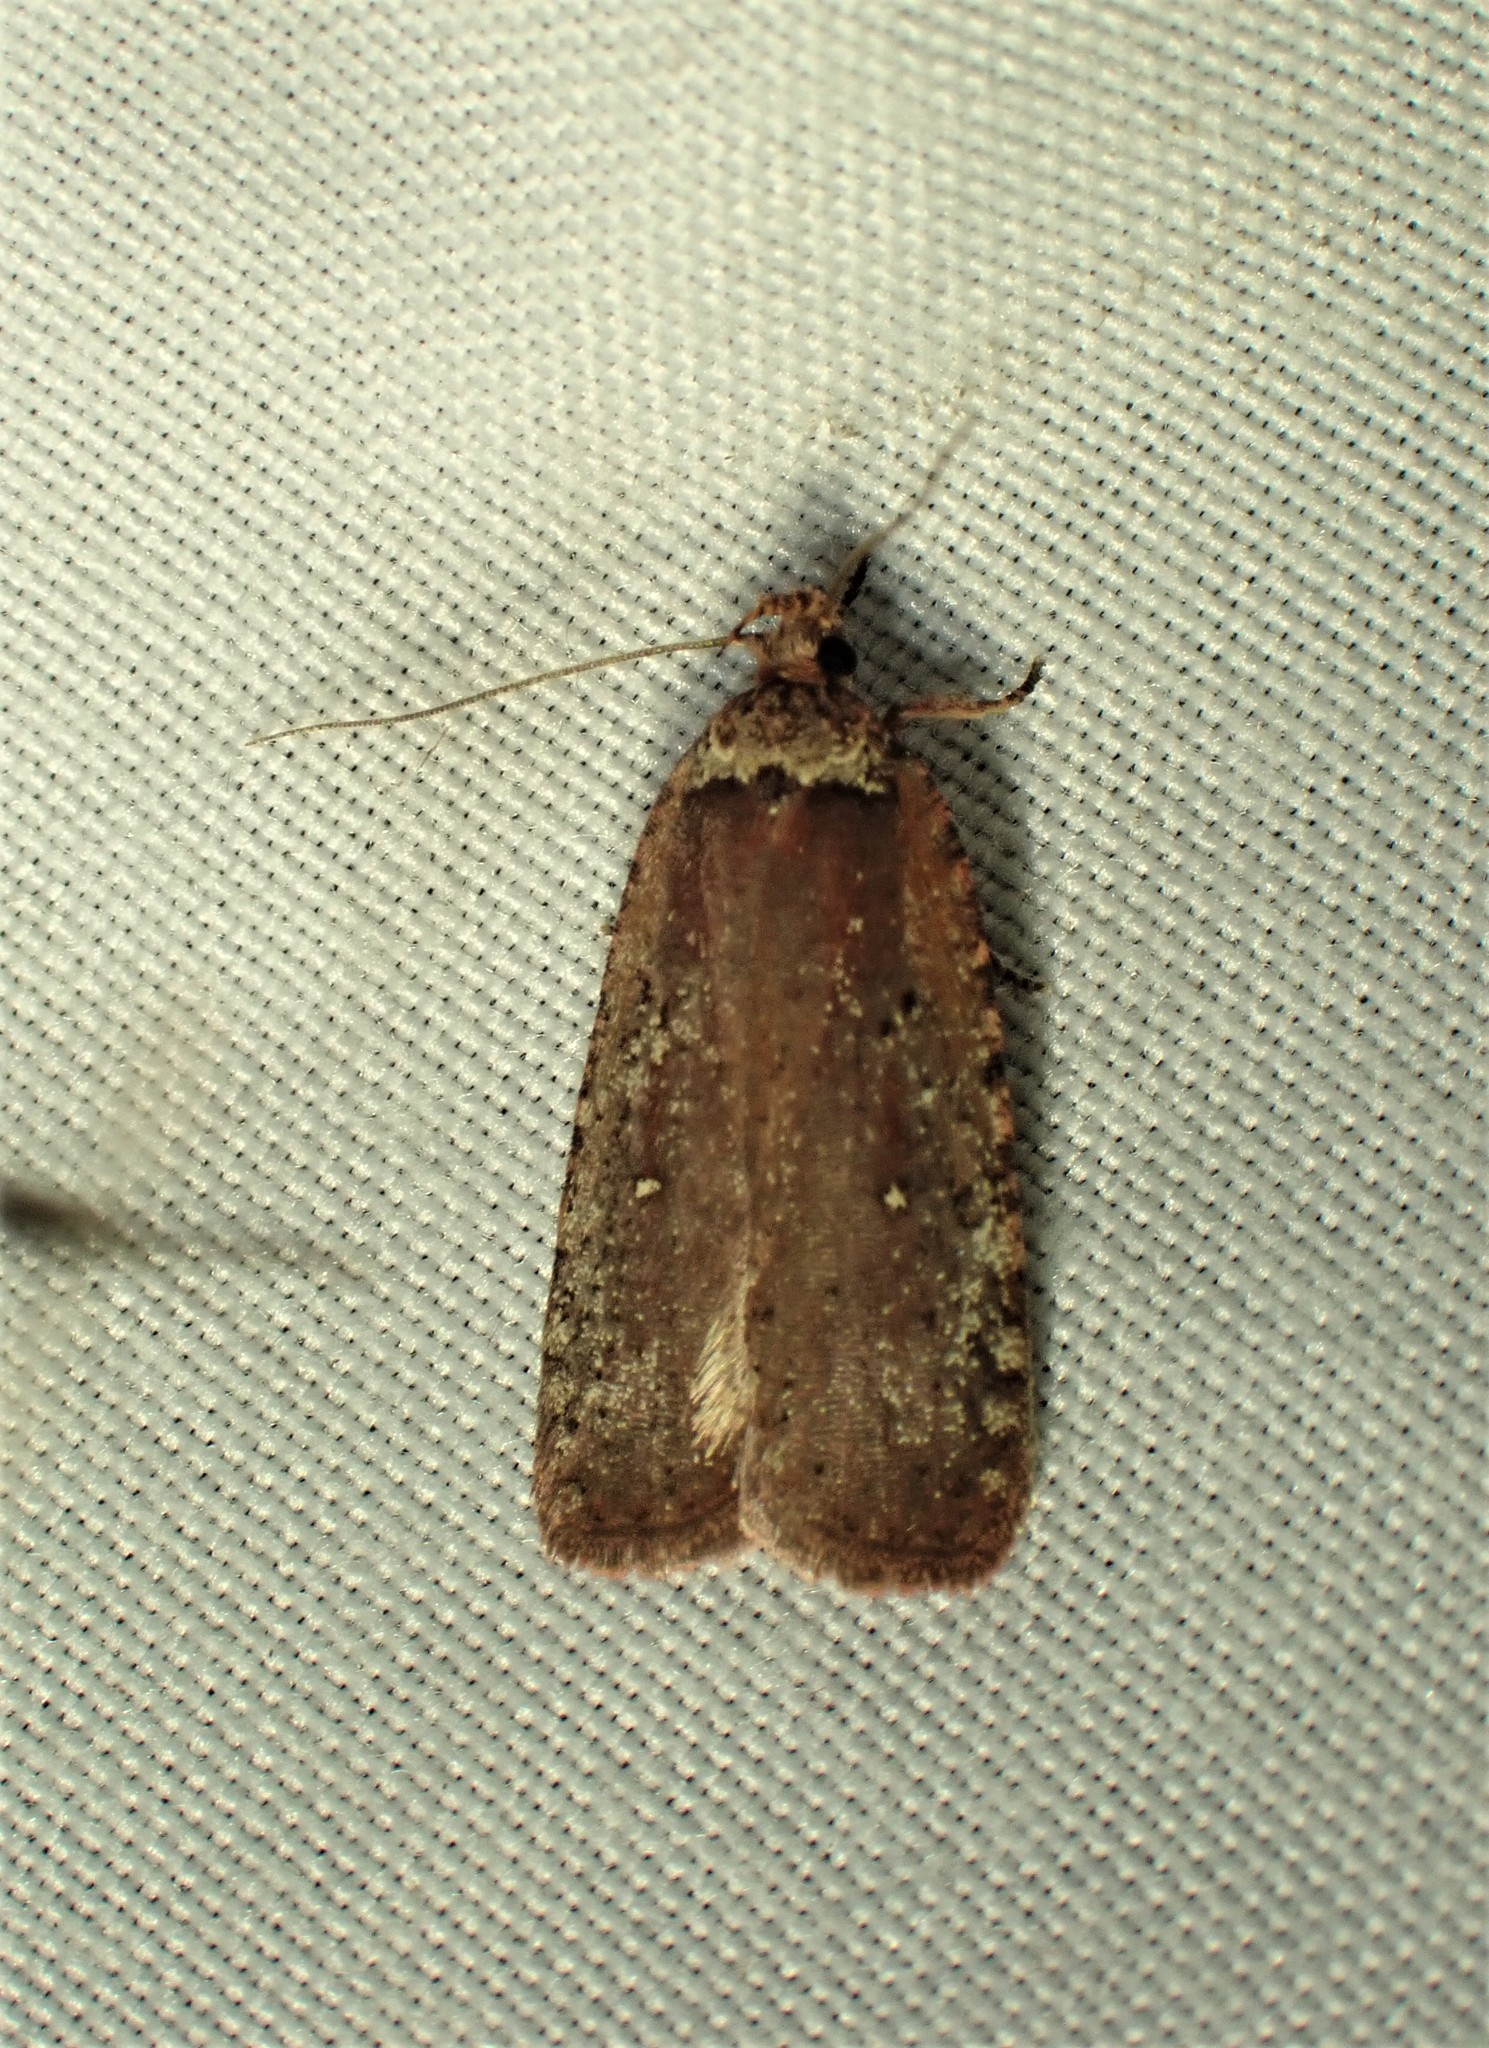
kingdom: Animalia
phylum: Arthropoda
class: Insecta
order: Lepidoptera
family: Depressariidae
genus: Agonopterix
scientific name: Agonopterix walsinghamella
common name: Walsingham's agonopterix moth
